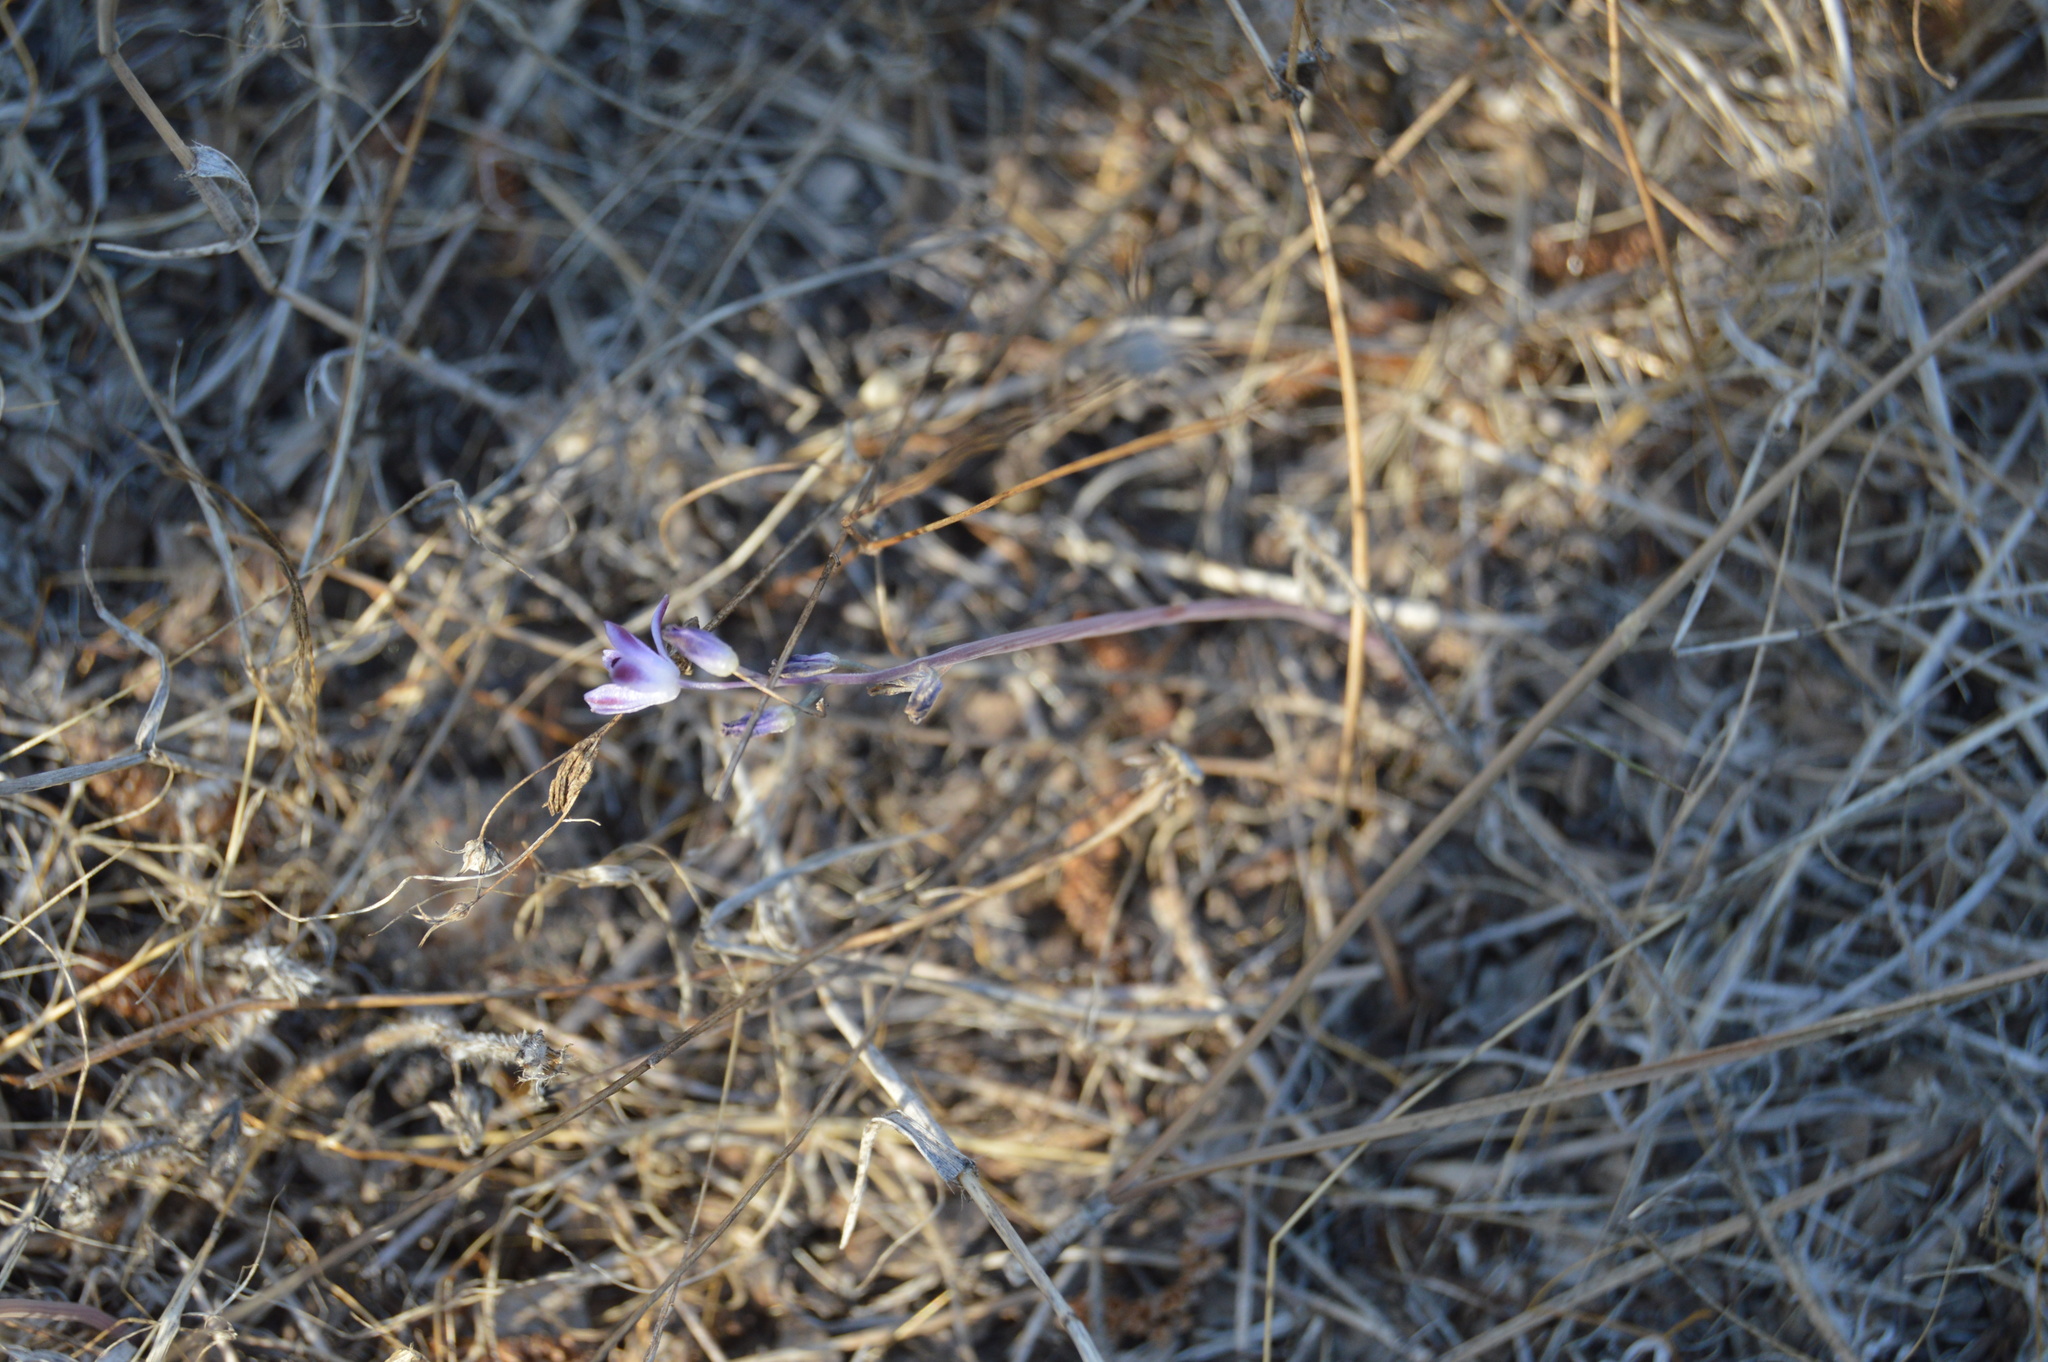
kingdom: Plantae
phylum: Tracheophyta
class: Liliopsida
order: Asparagales
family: Asparagaceae
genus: Prospero
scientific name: Prospero autumnale
